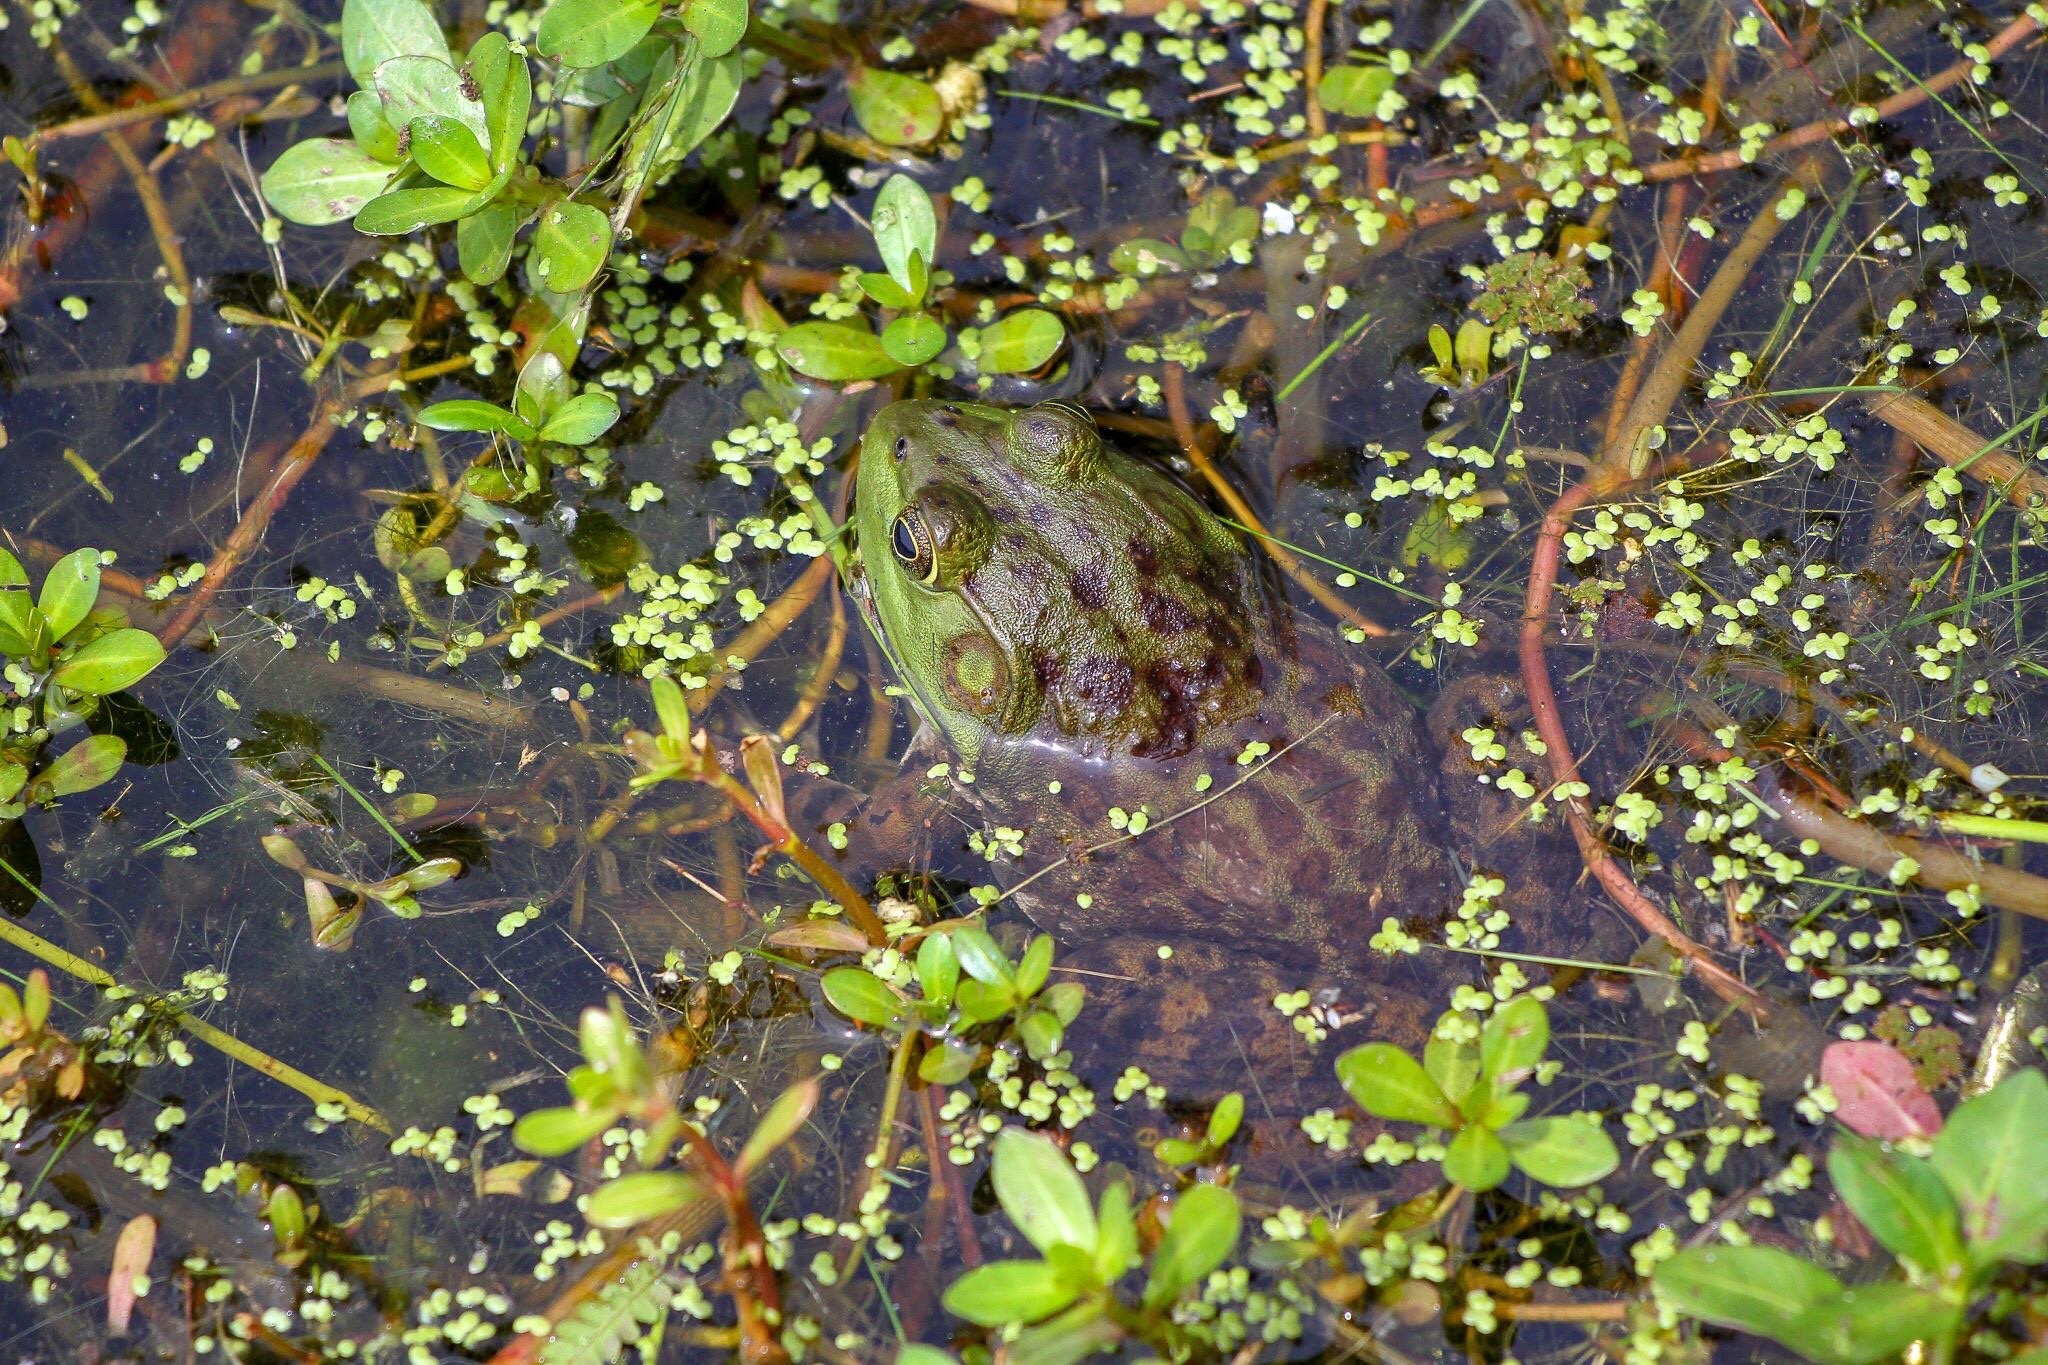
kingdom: Animalia
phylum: Chordata
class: Amphibia
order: Anura
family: Ranidae
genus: Lithobates
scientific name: Lithobates catesbeianus
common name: American bullfrog
